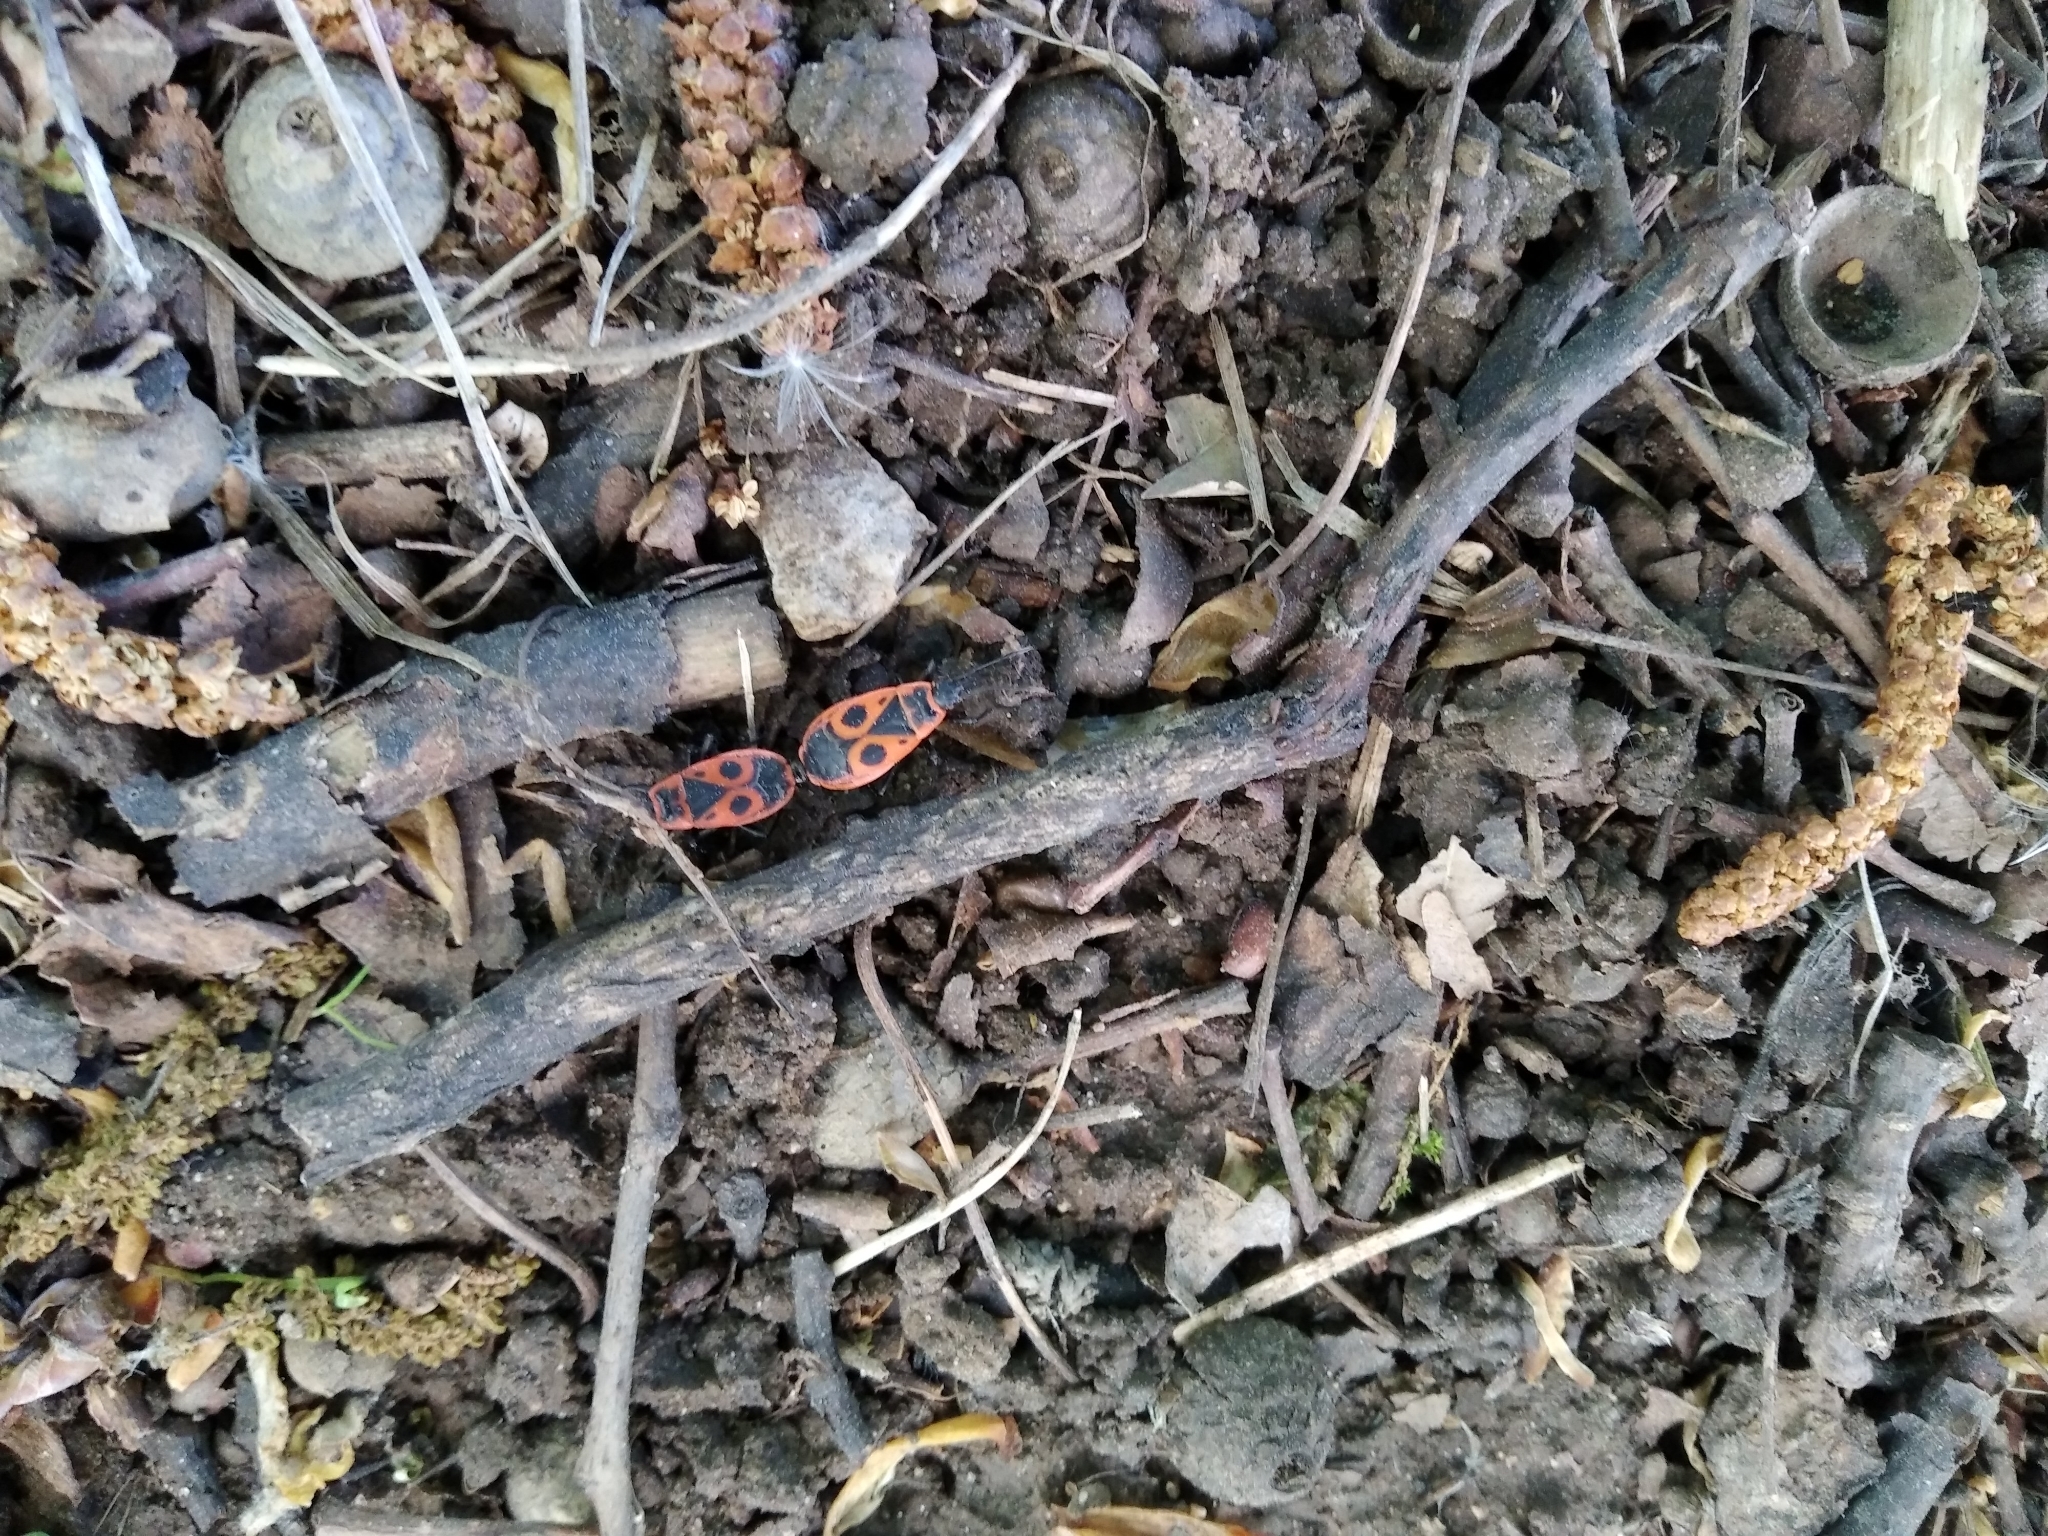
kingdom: Animalia
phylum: Arthropoda
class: Insecta
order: Hemiptera
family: Pyrrhocoridae
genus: Pyrrhocoris
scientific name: Pyrrhocoris apterus
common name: Firebug
